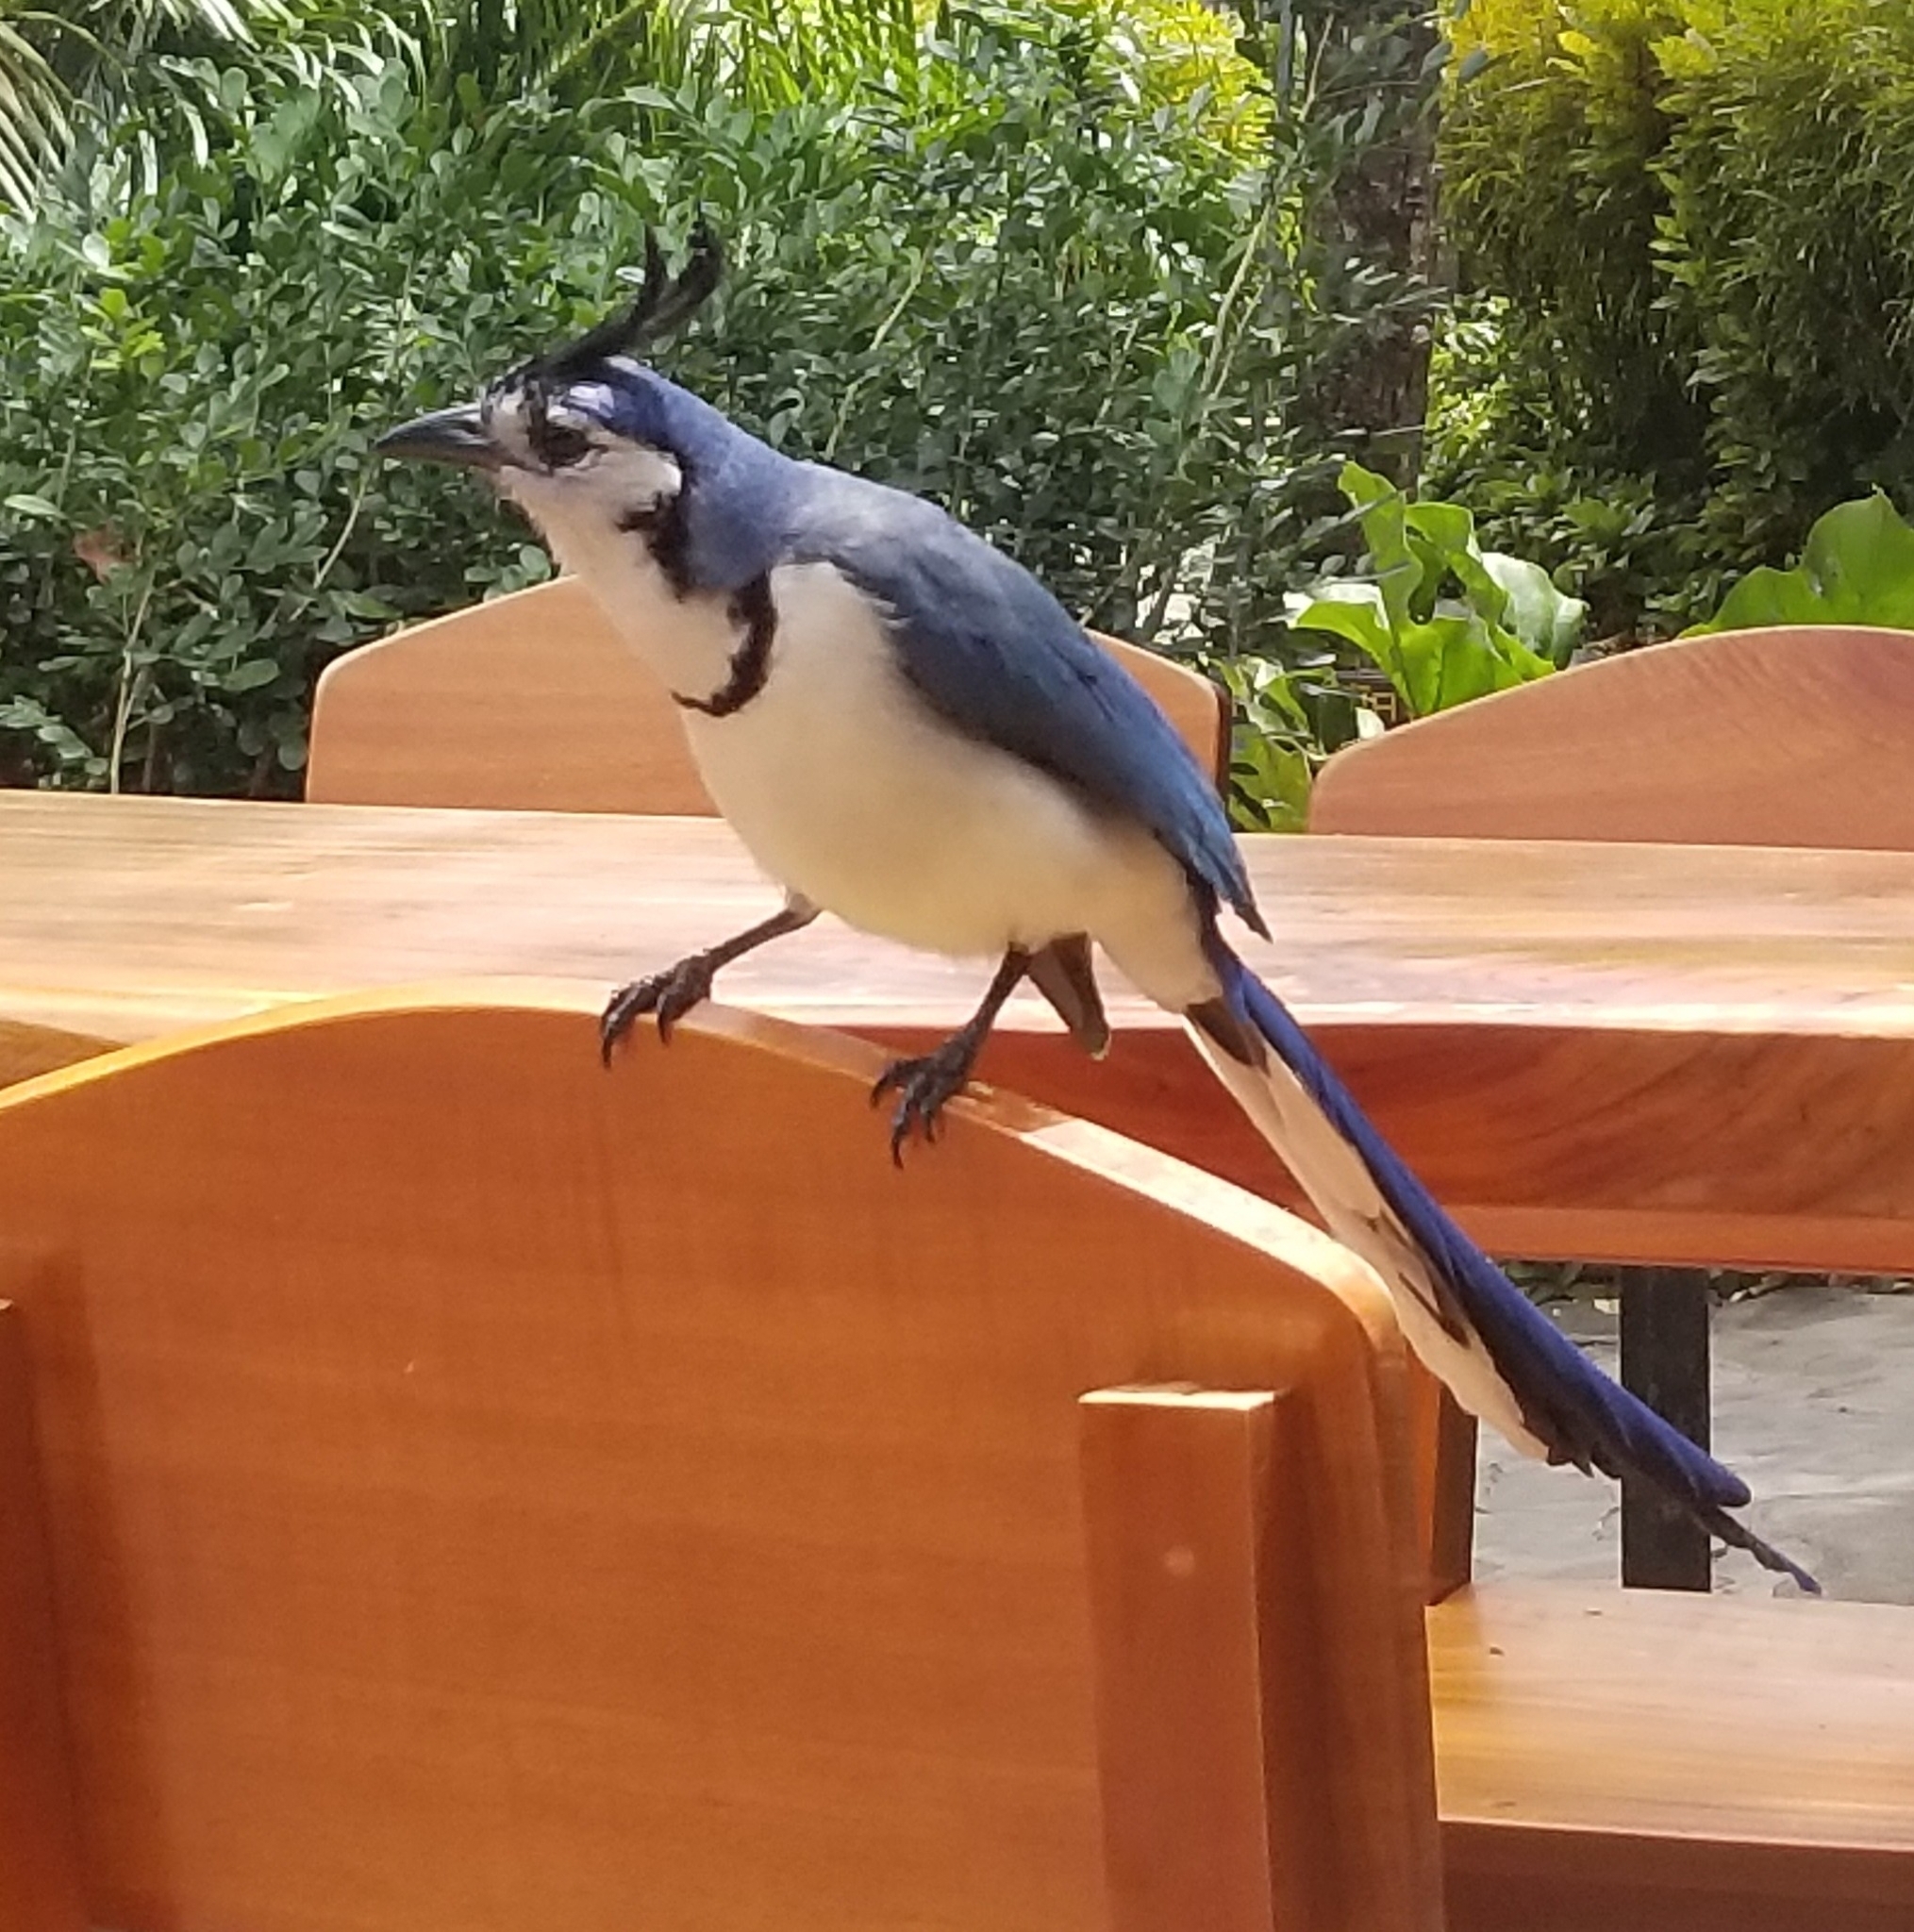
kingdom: Animalia
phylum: Chordata
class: Aves
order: Passeriformes
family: Corvidae
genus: Calocitta
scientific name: Calocitta formosa
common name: White-throated magpie-jay
